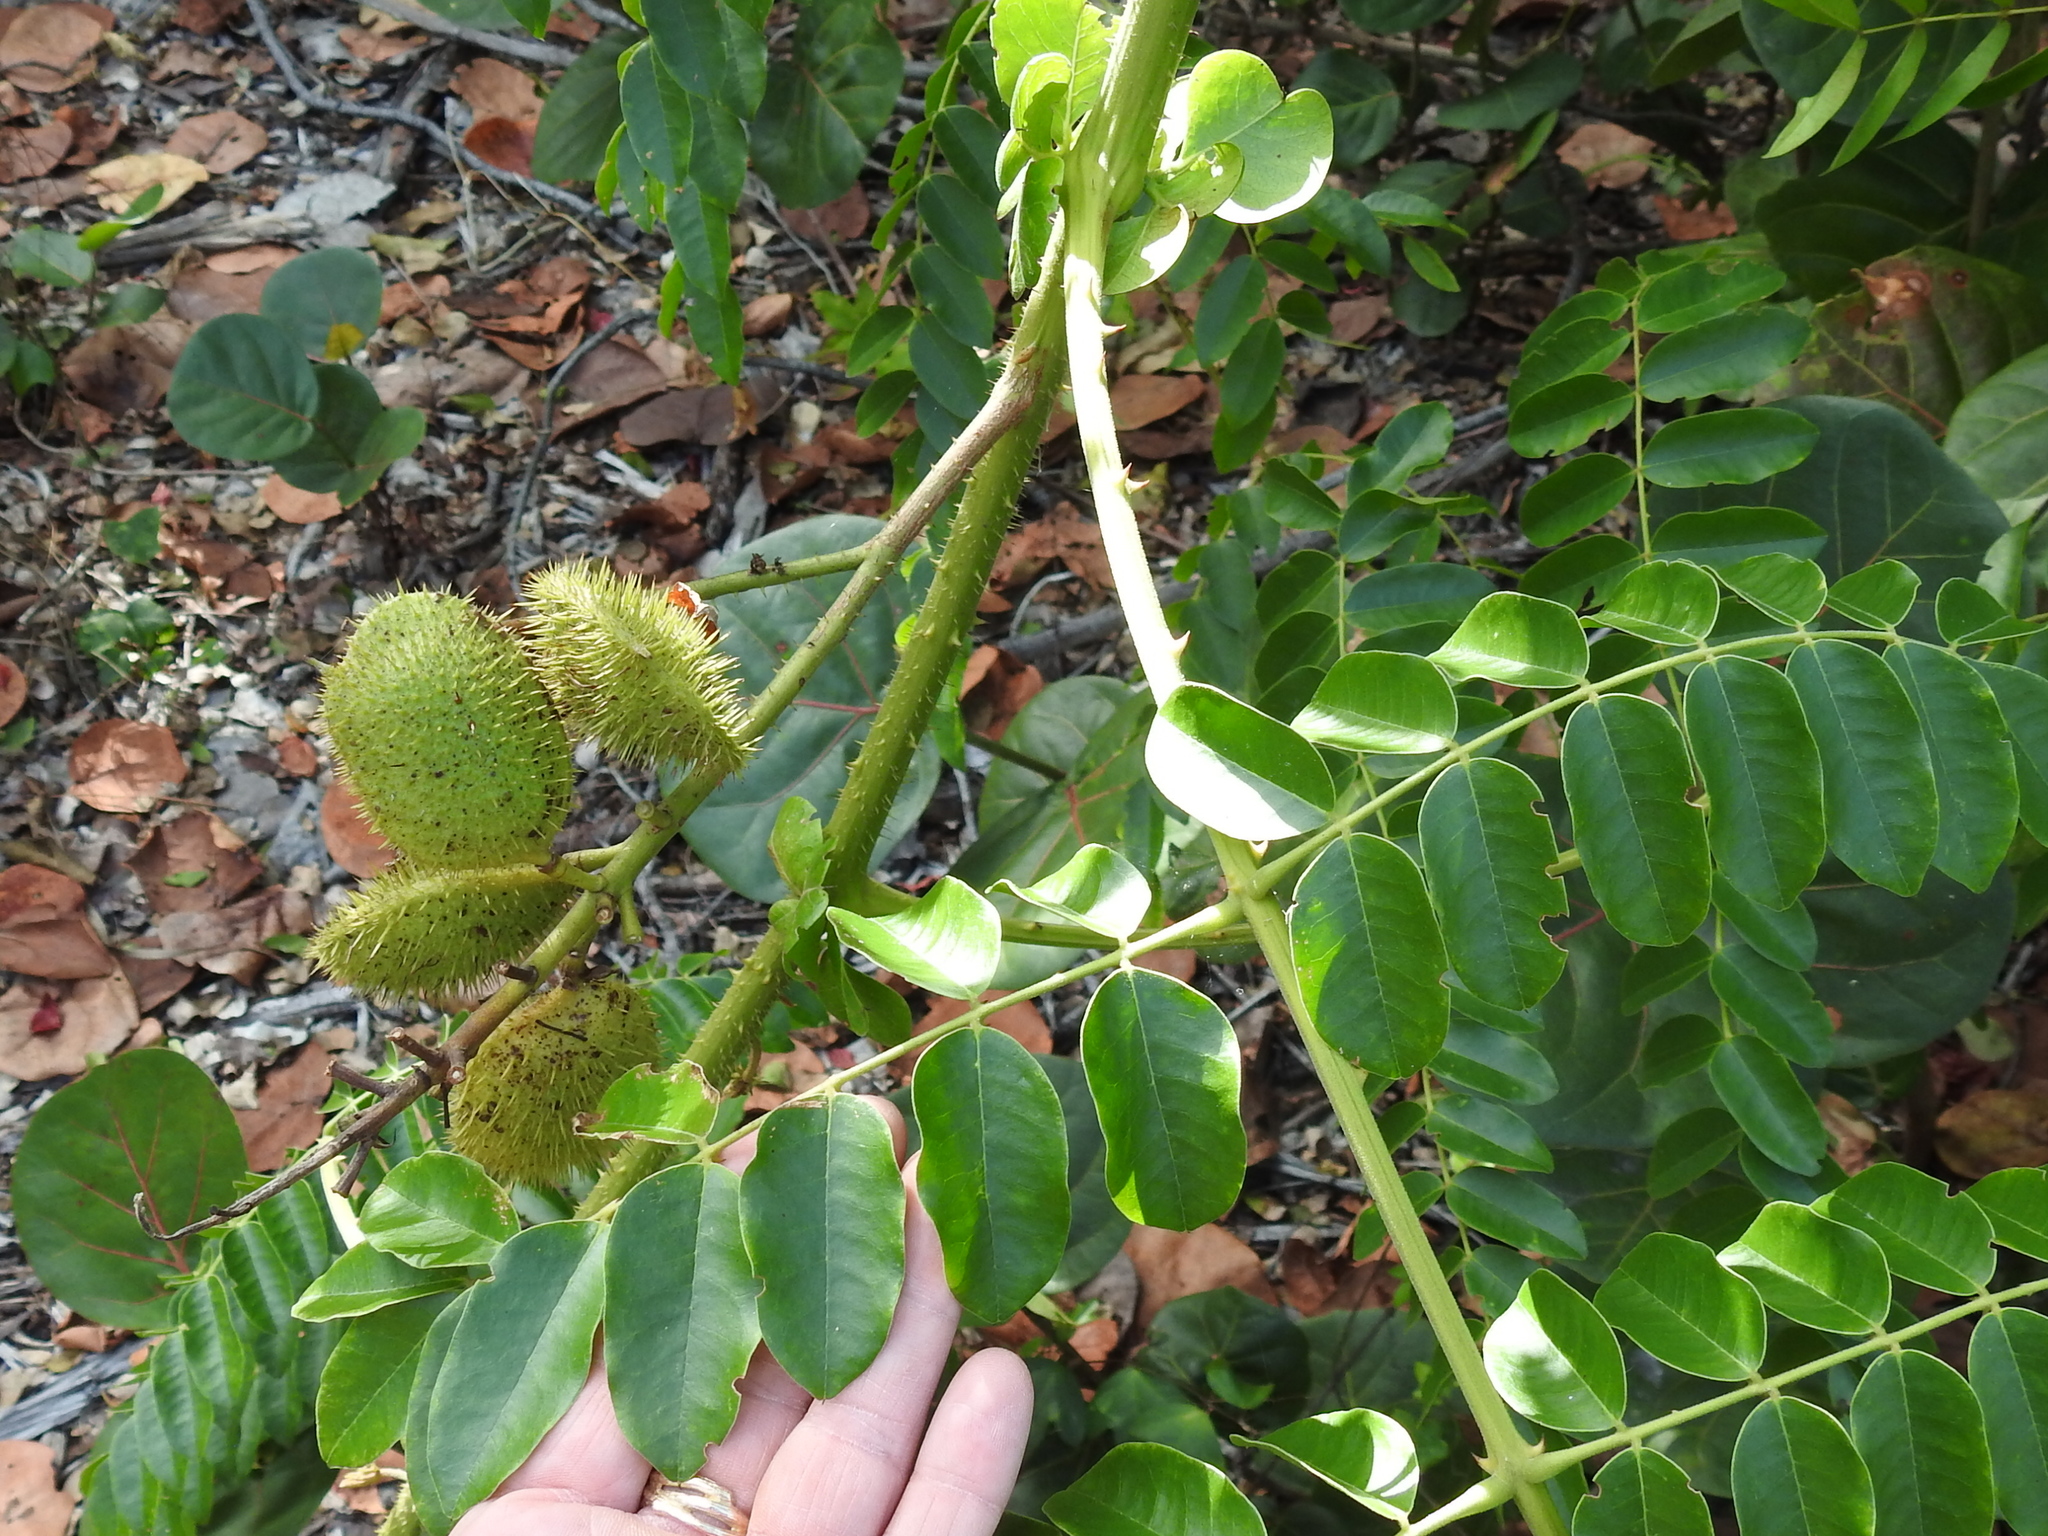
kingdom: Plantae
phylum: Tracheophyta
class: Magnoliopsida
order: Fabales
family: Fabaceae
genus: Guilandina
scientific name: Guilandina bonduc
